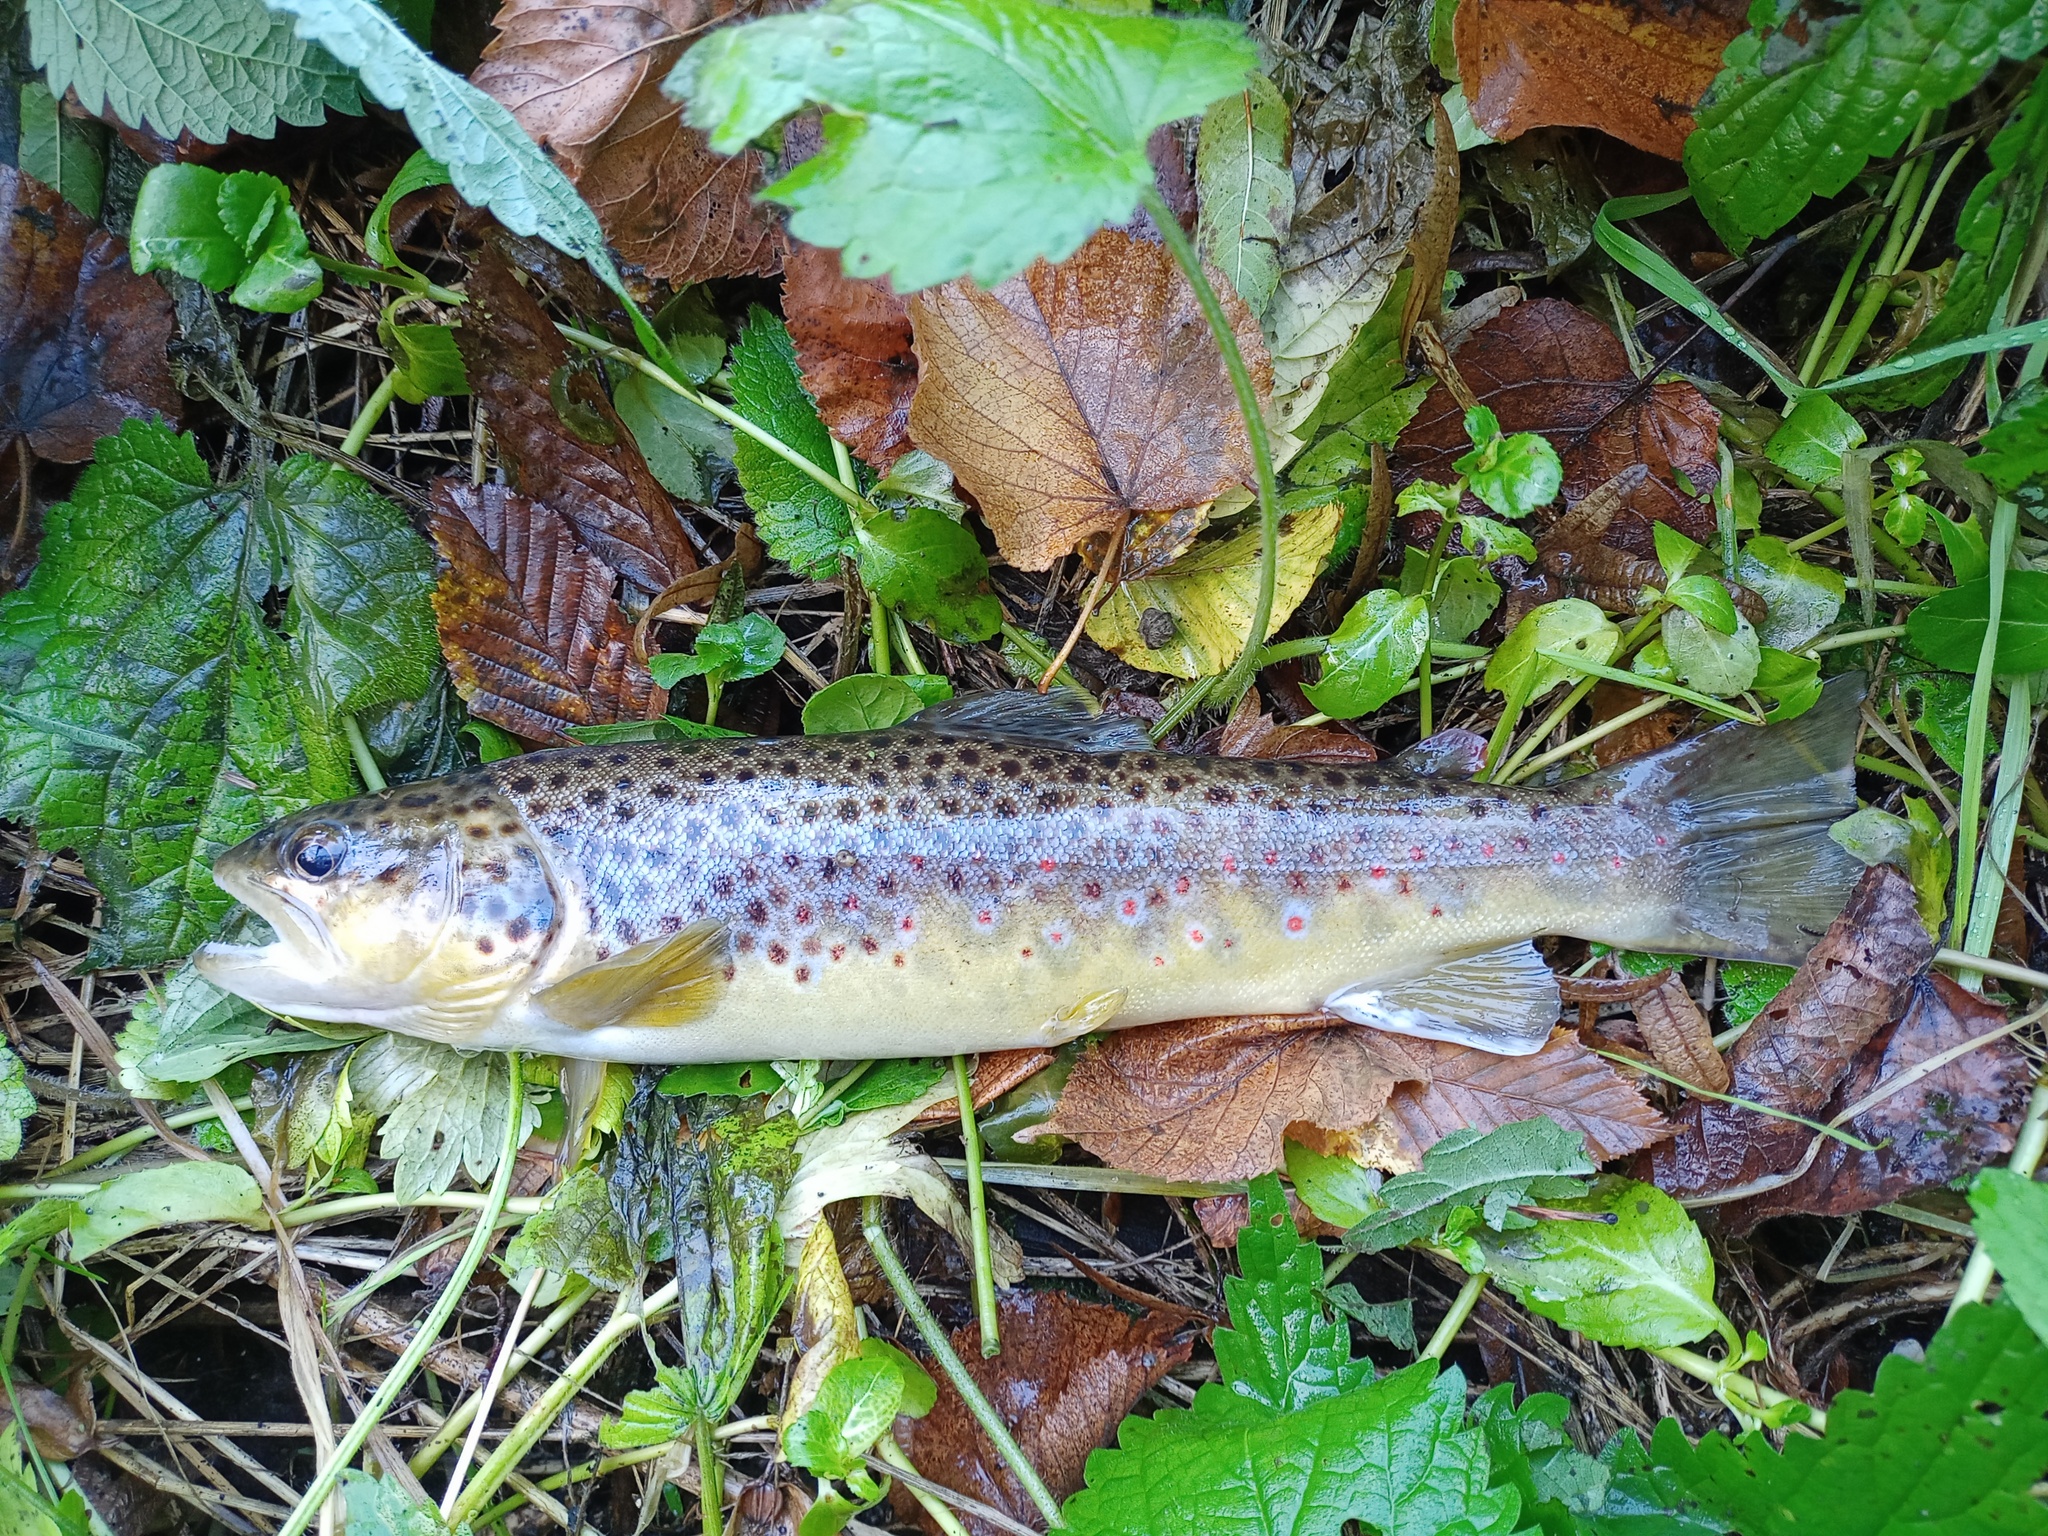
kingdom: Animalia
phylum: Chordata
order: Salmoniformes
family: Salmonidae
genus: Salmo
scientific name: Salmo trutta
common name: Brown trout
